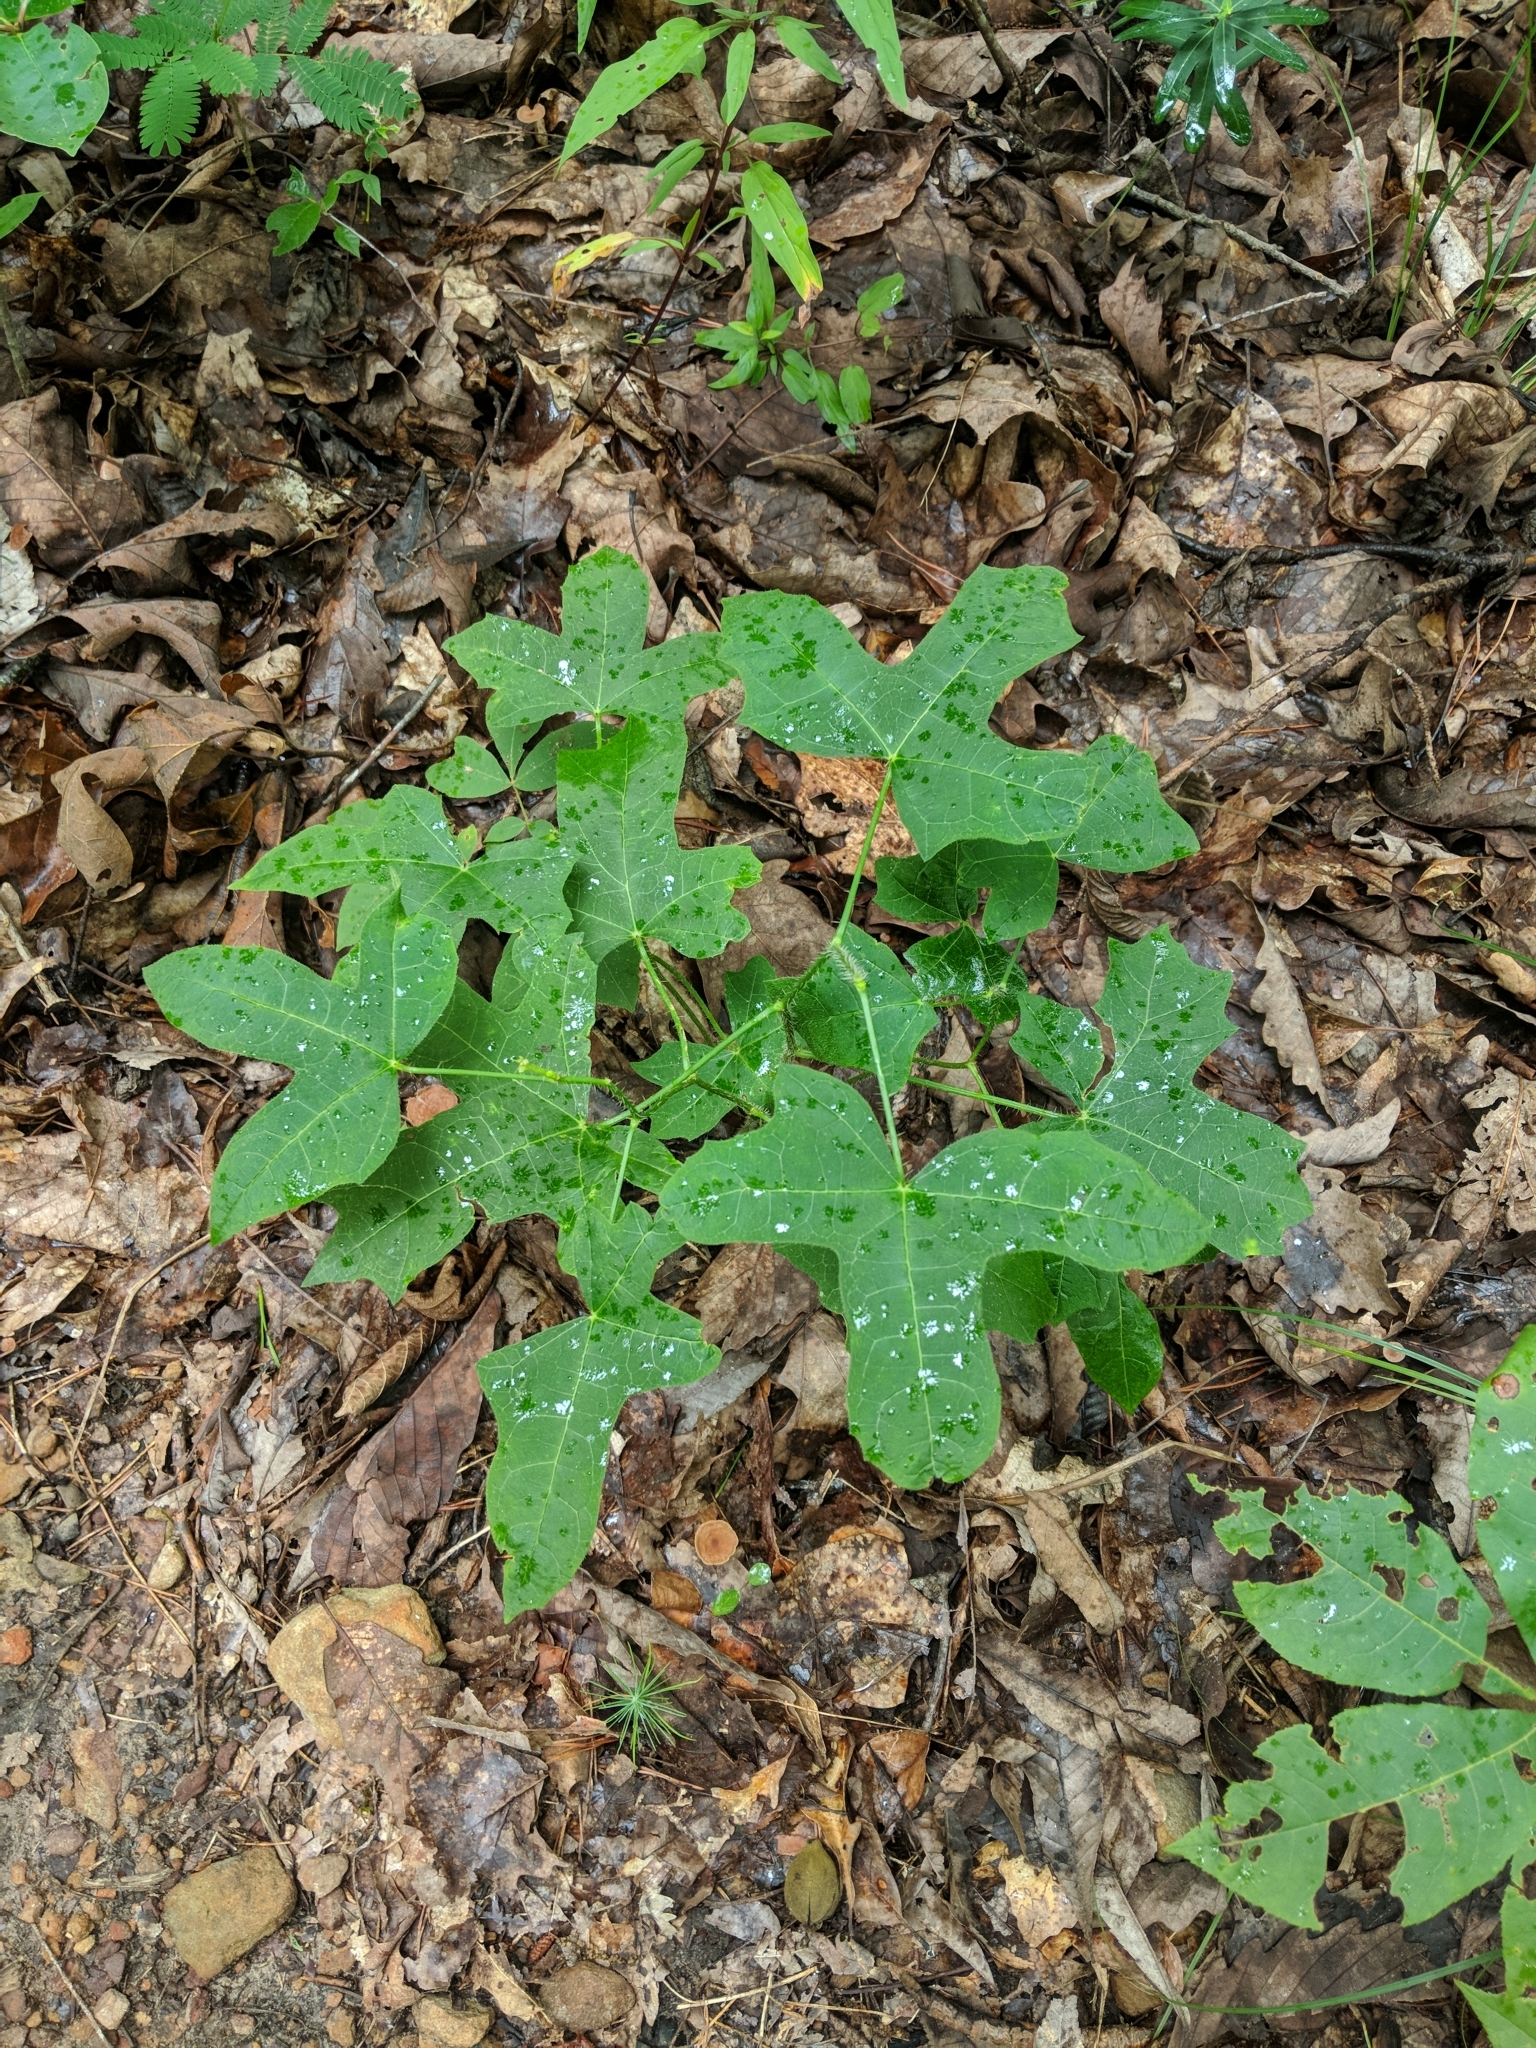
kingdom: Plantae
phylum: Tracheophyta
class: Magnoliopsida
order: Malpighiales
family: Euphorbiaceae
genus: Cnidoscolus
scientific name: Cnidoscolus stimulosus
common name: Bull-nettle
